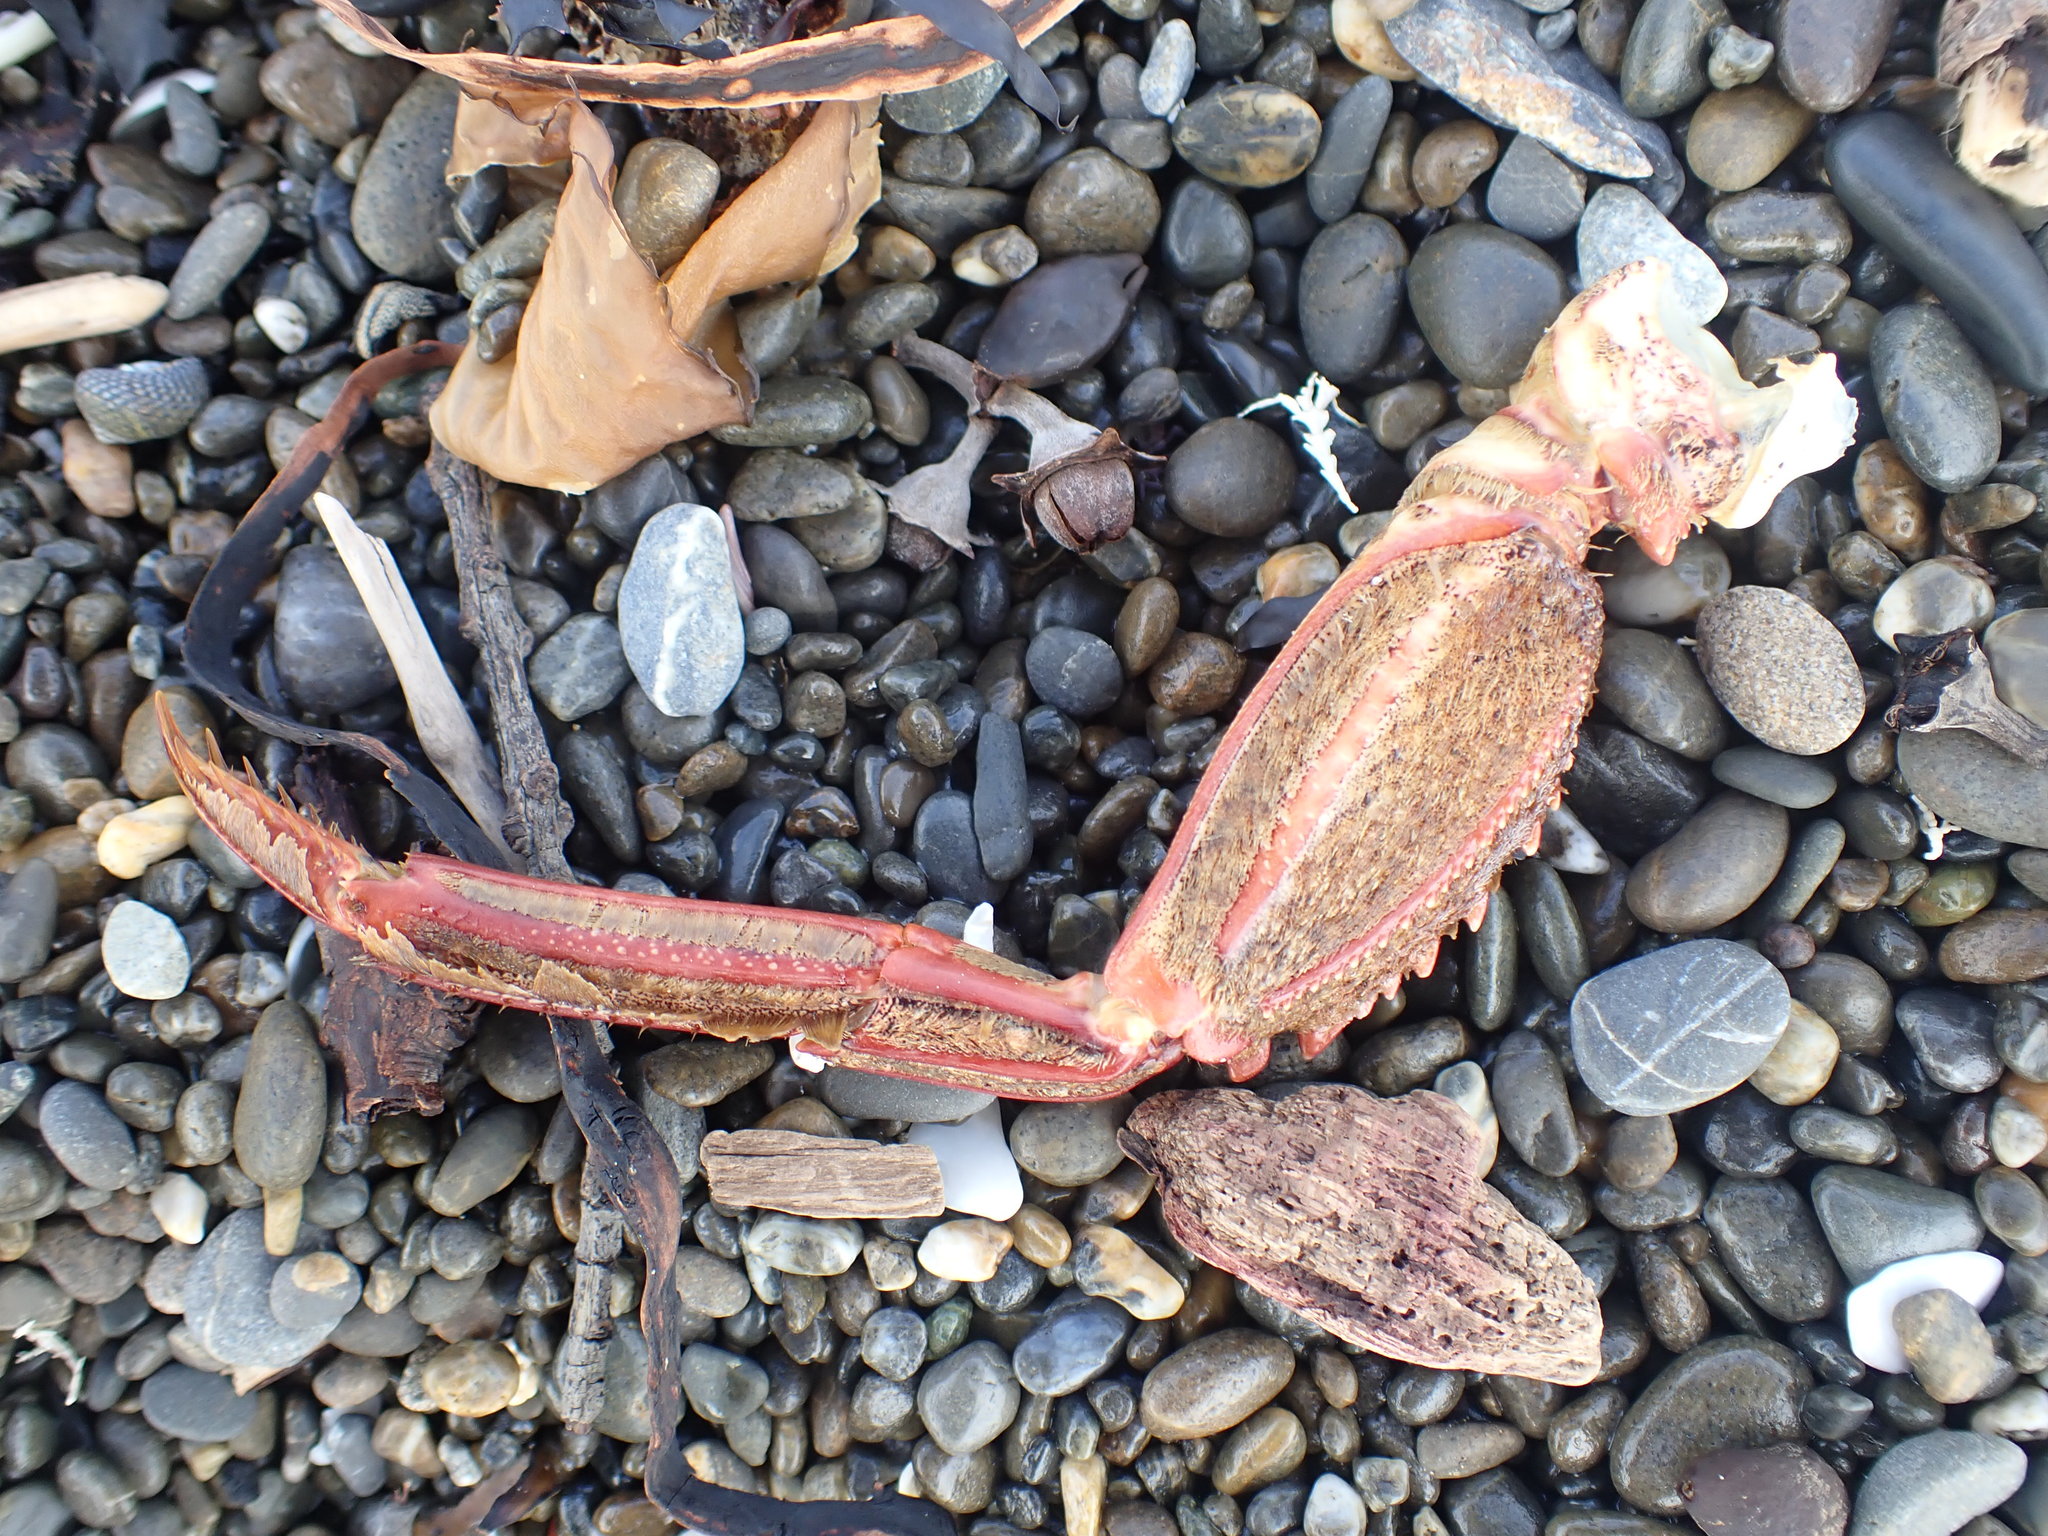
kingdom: Animalia
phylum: Arthropoda
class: Malacostraca
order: Decapoda
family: Plagusiidae
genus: Guinusia
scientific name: Guinusia chabrus
